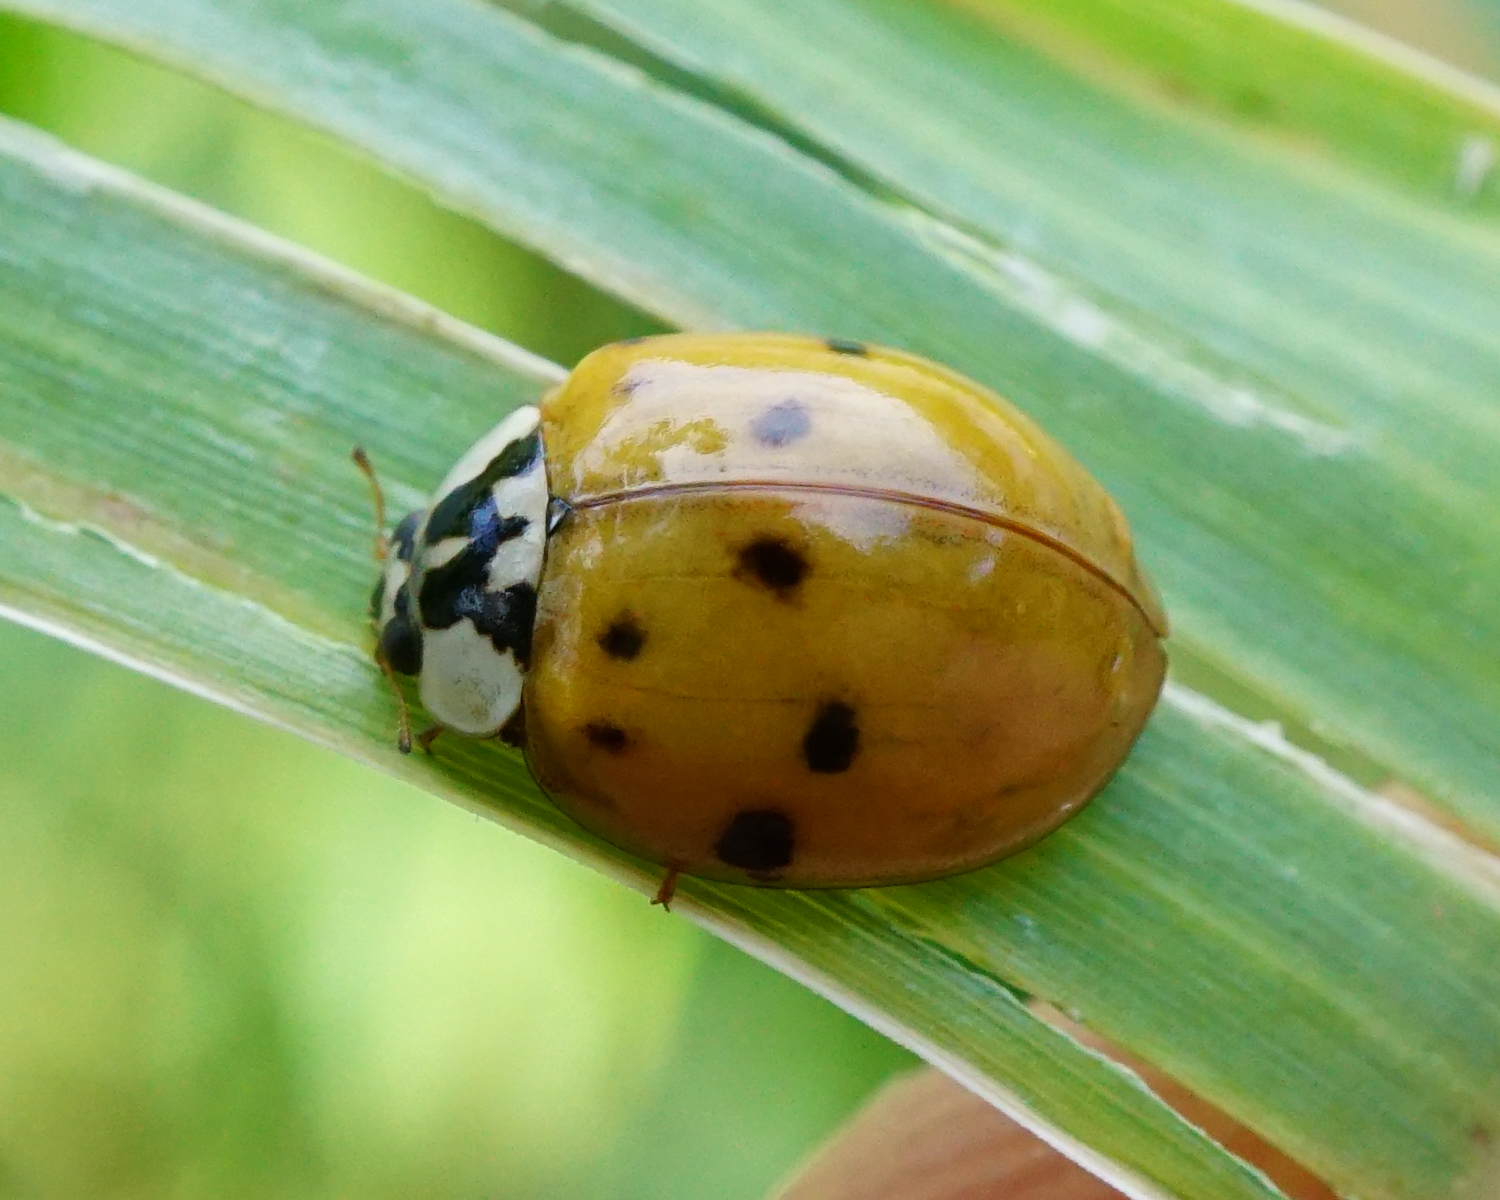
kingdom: Animalia
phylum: Arthropoda
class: Insecta
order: Coleoptera
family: Coccinellidae
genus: Harmonia
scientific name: Harmonia axyridis
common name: Harlequin ladybird
